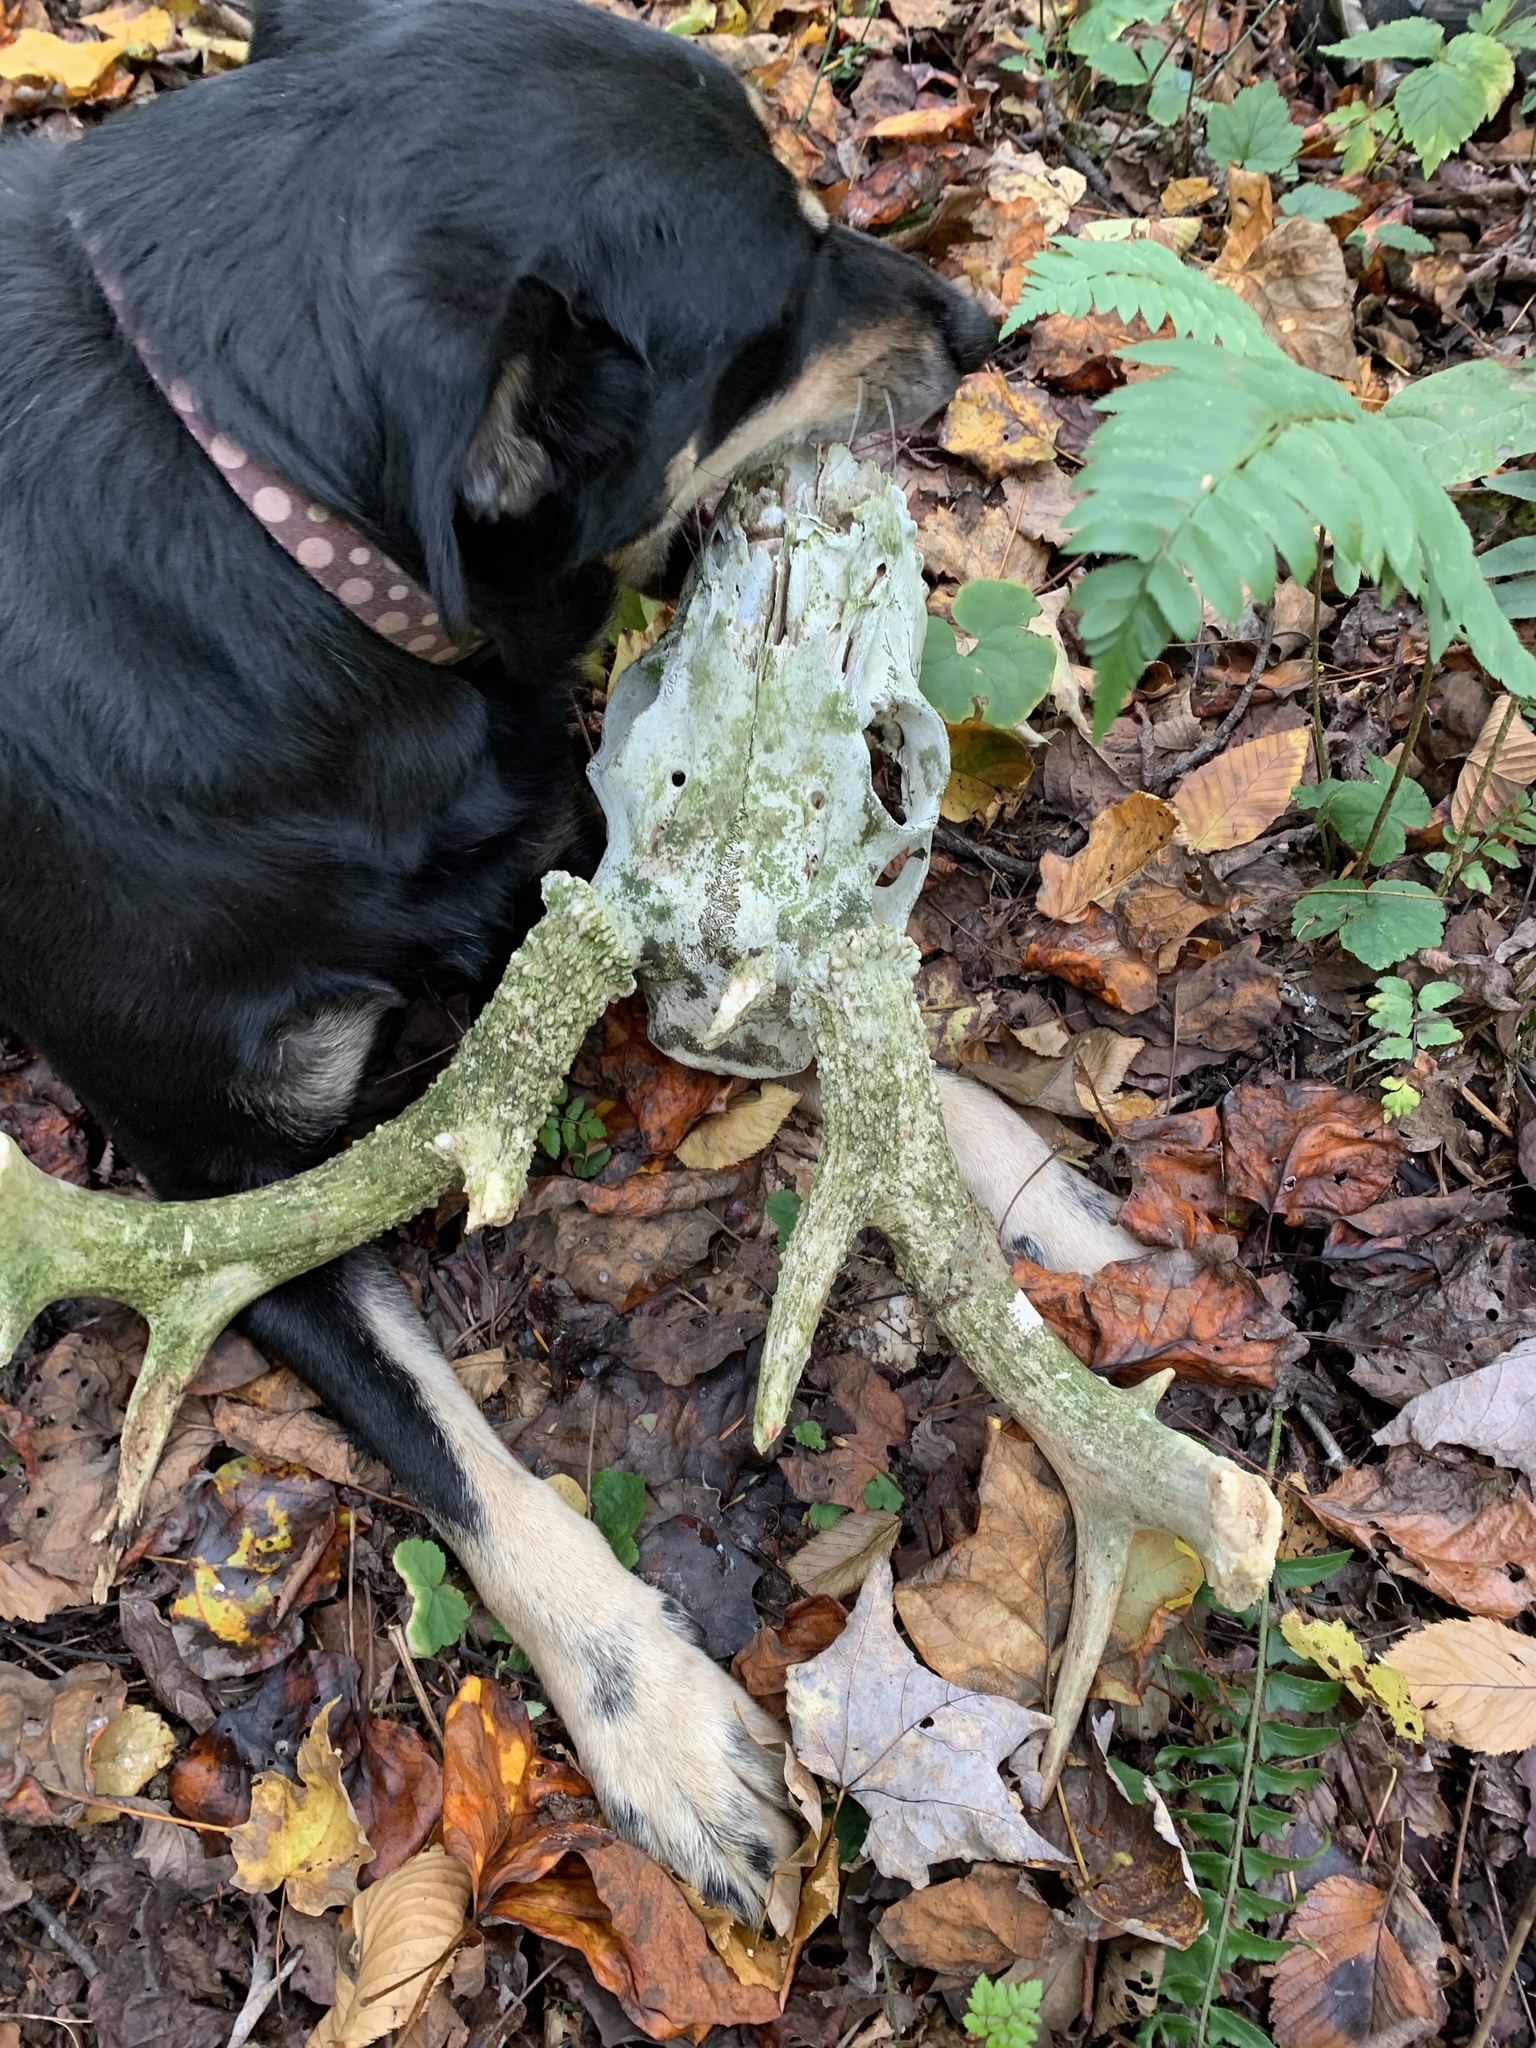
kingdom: Animalia
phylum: Chordata
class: Mammalia
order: Artiodactyla
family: Cervidae
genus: Odocoileus
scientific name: Odocoileus virginianus
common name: White-tailed deer
